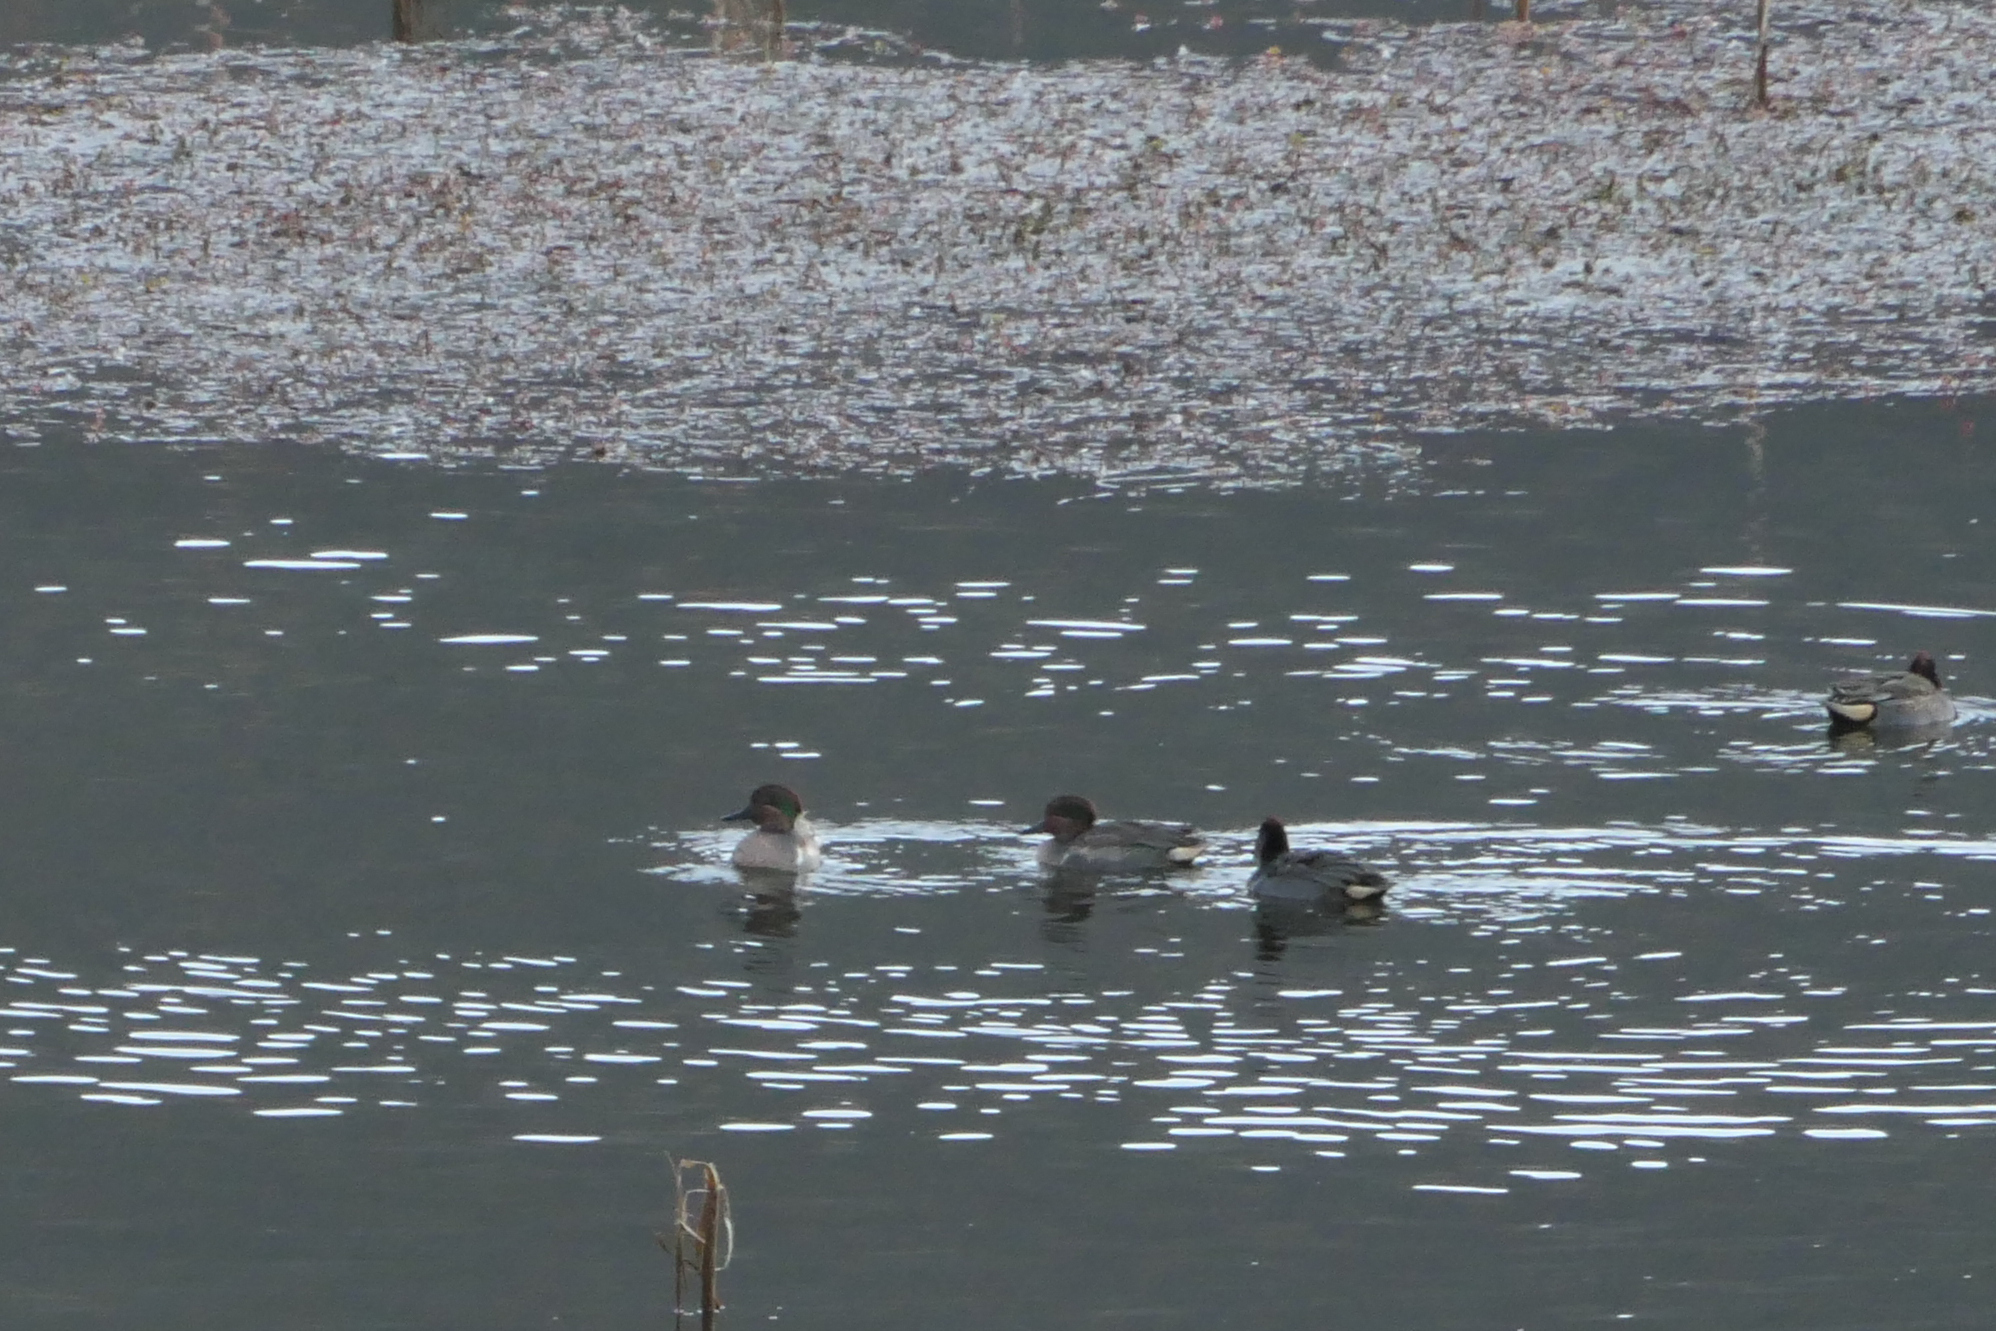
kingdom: Animalia
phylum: Chordata
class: Aves
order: Anseriformes
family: Anatidae
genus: Anas
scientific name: Anas crecca
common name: Eurasian teal
